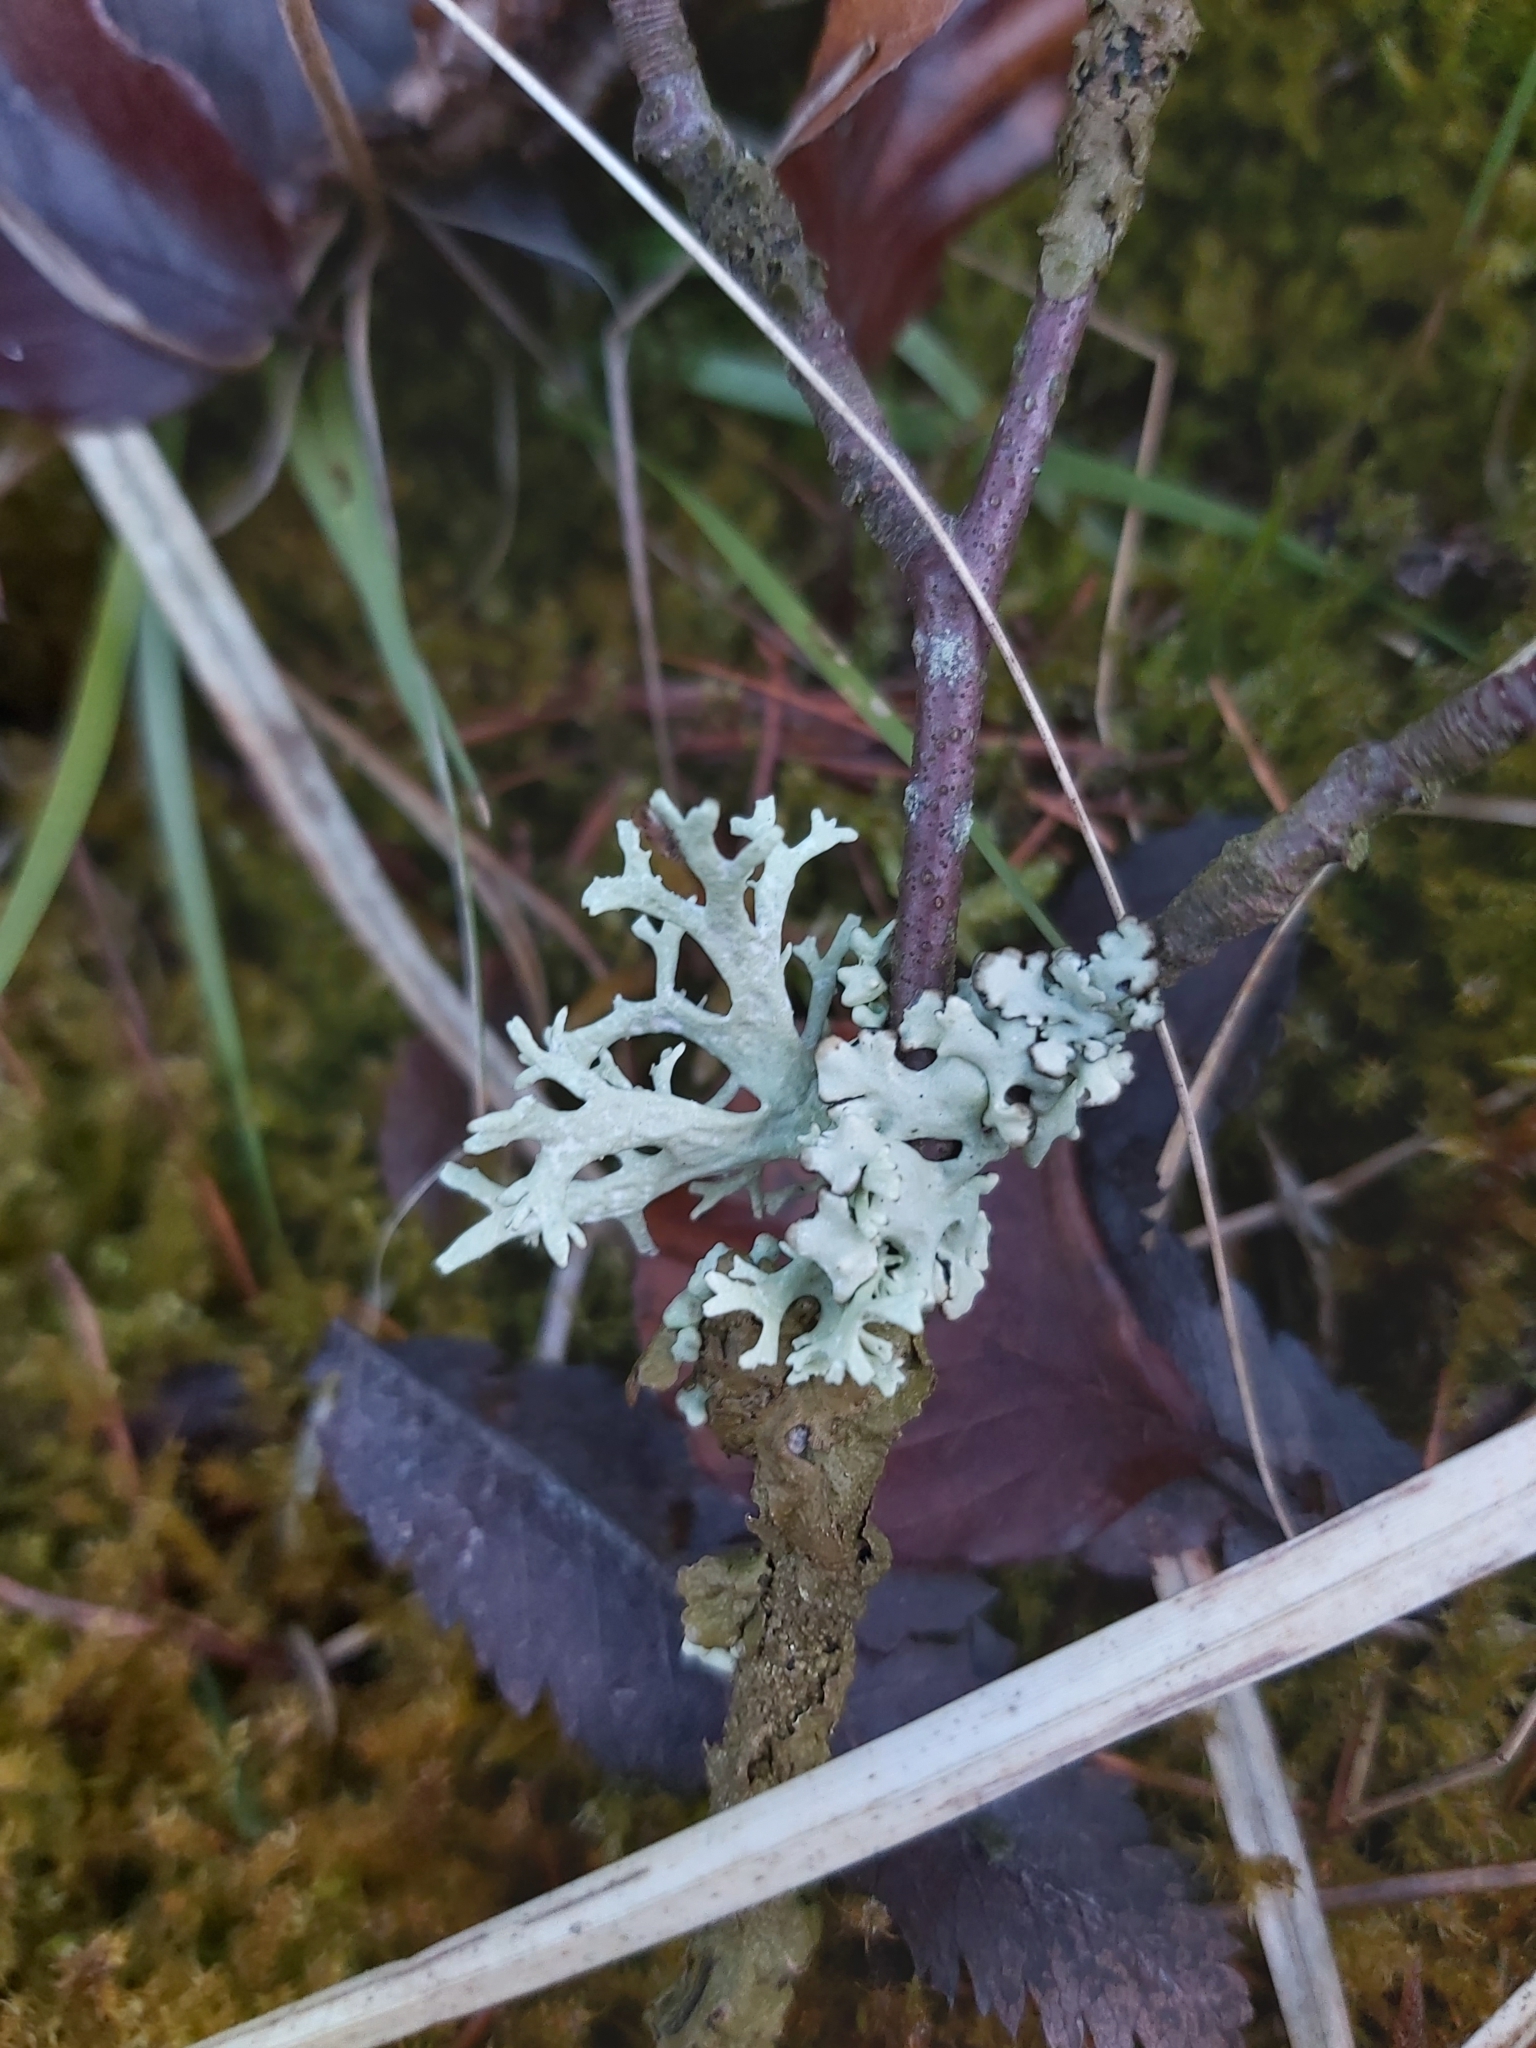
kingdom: Fungi
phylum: Ascomycota
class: Lecanoromycetes
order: Lecanorales
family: Parmeliaceae
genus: Melanelixia
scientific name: Melanelixia subaurifera
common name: Abraded camouflage lichen
